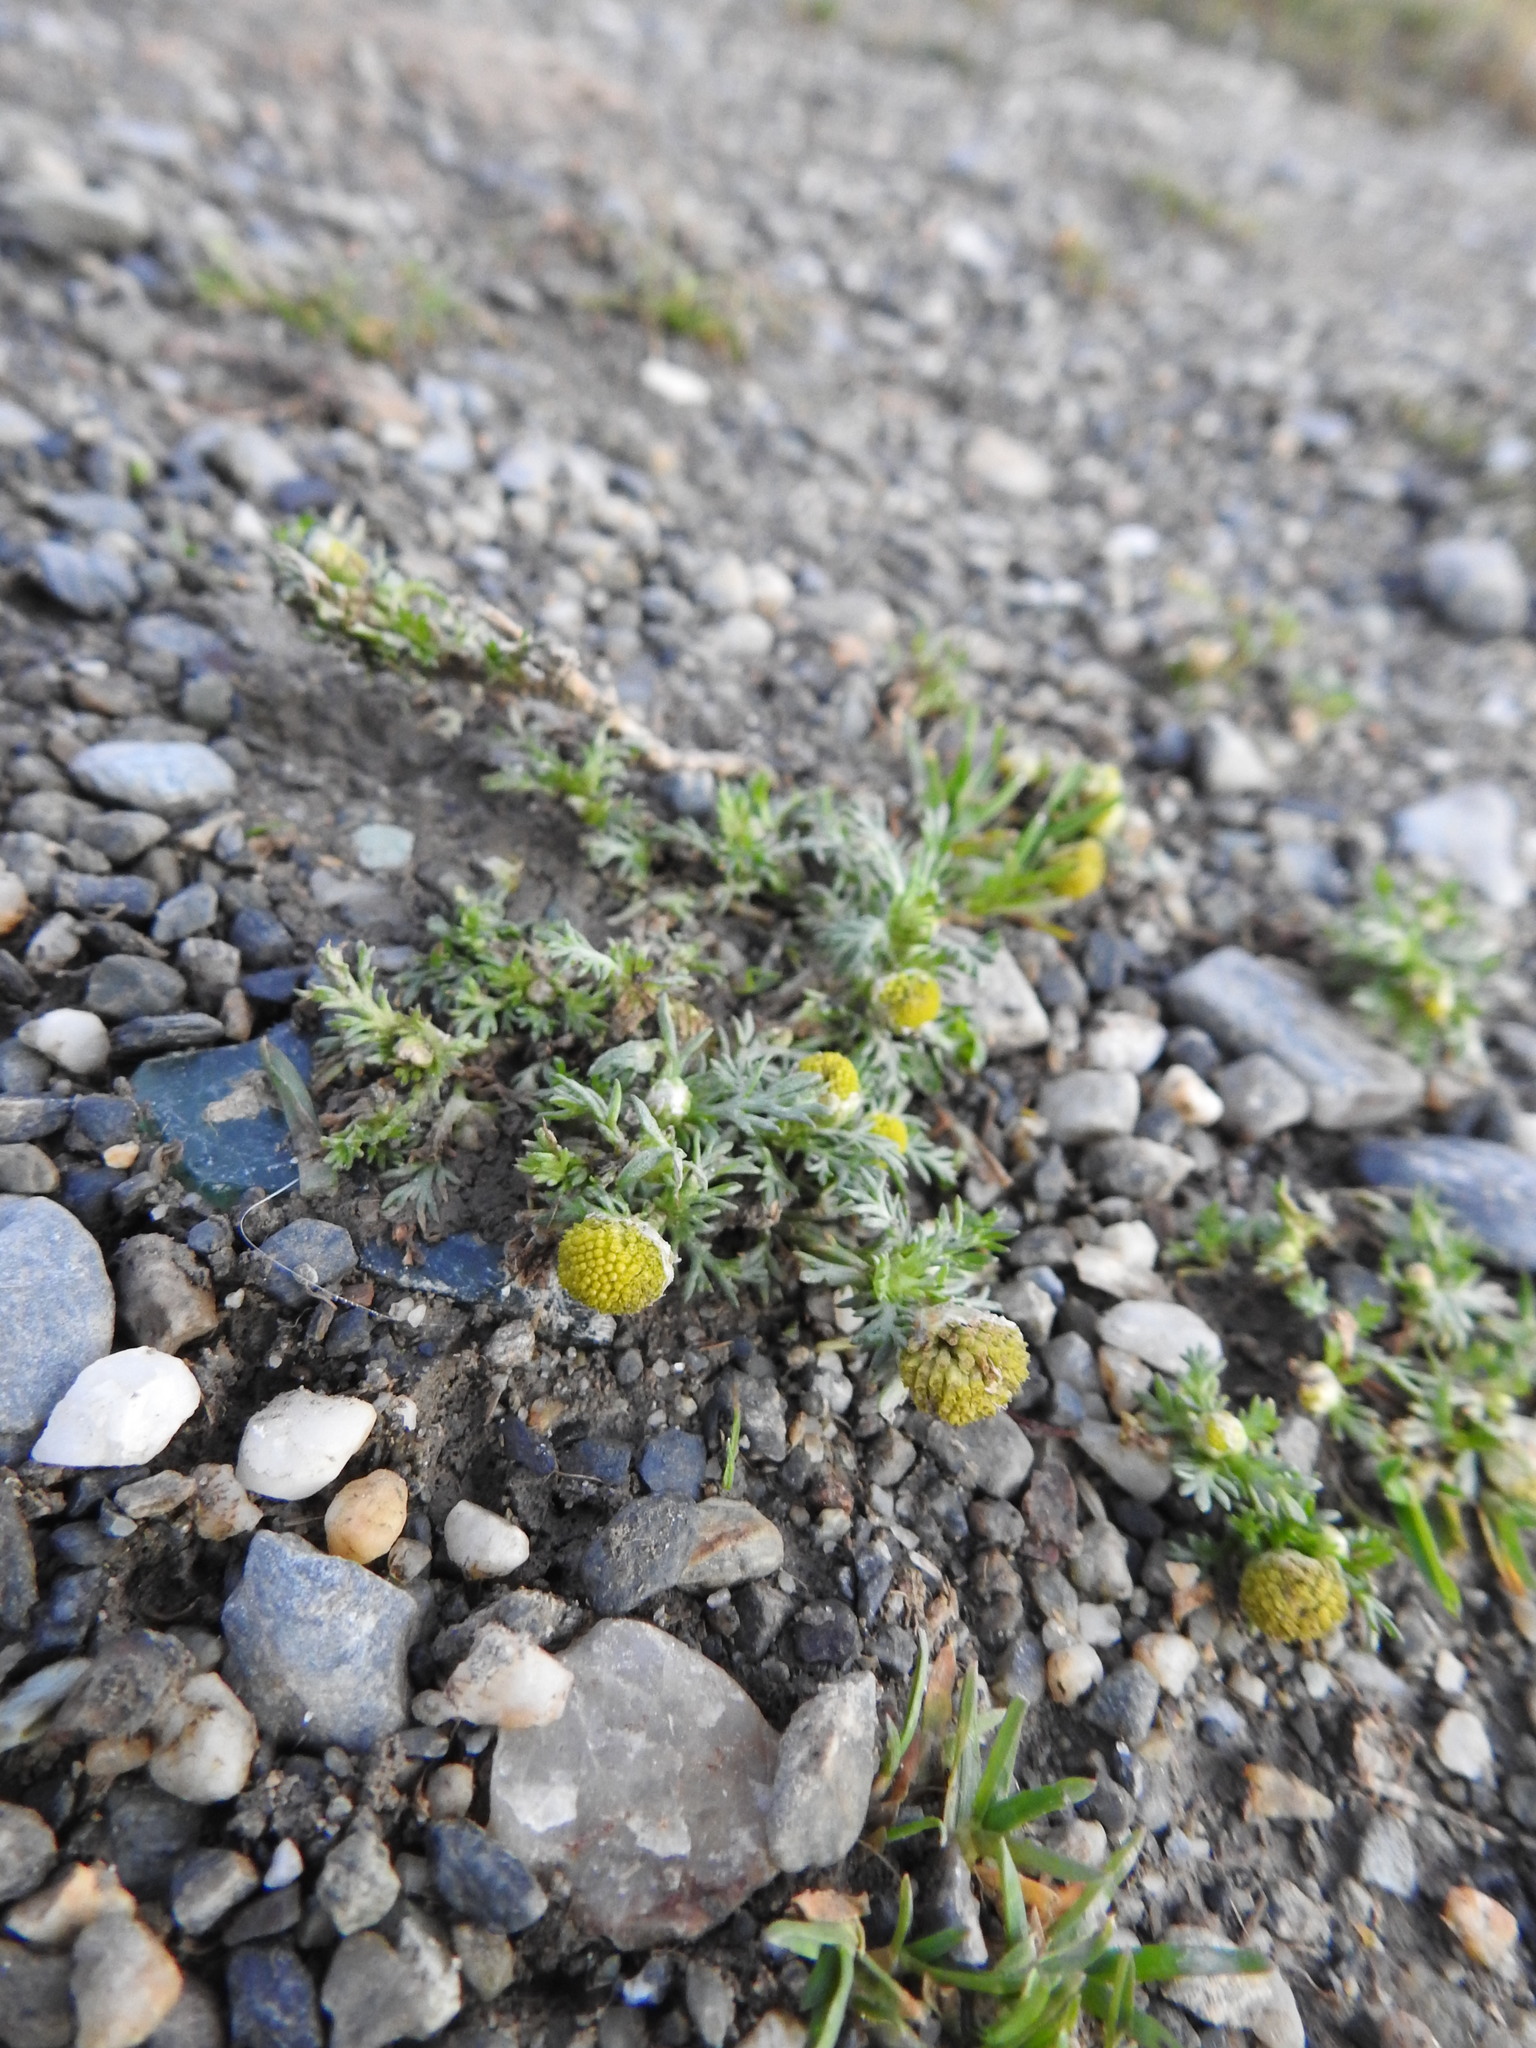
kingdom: Plantae
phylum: Tracheophyta
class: Magnoliopsida
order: Asterales
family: Asteraceae
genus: Matricaria
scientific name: Matricaria discoidea
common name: Disc mayweed
